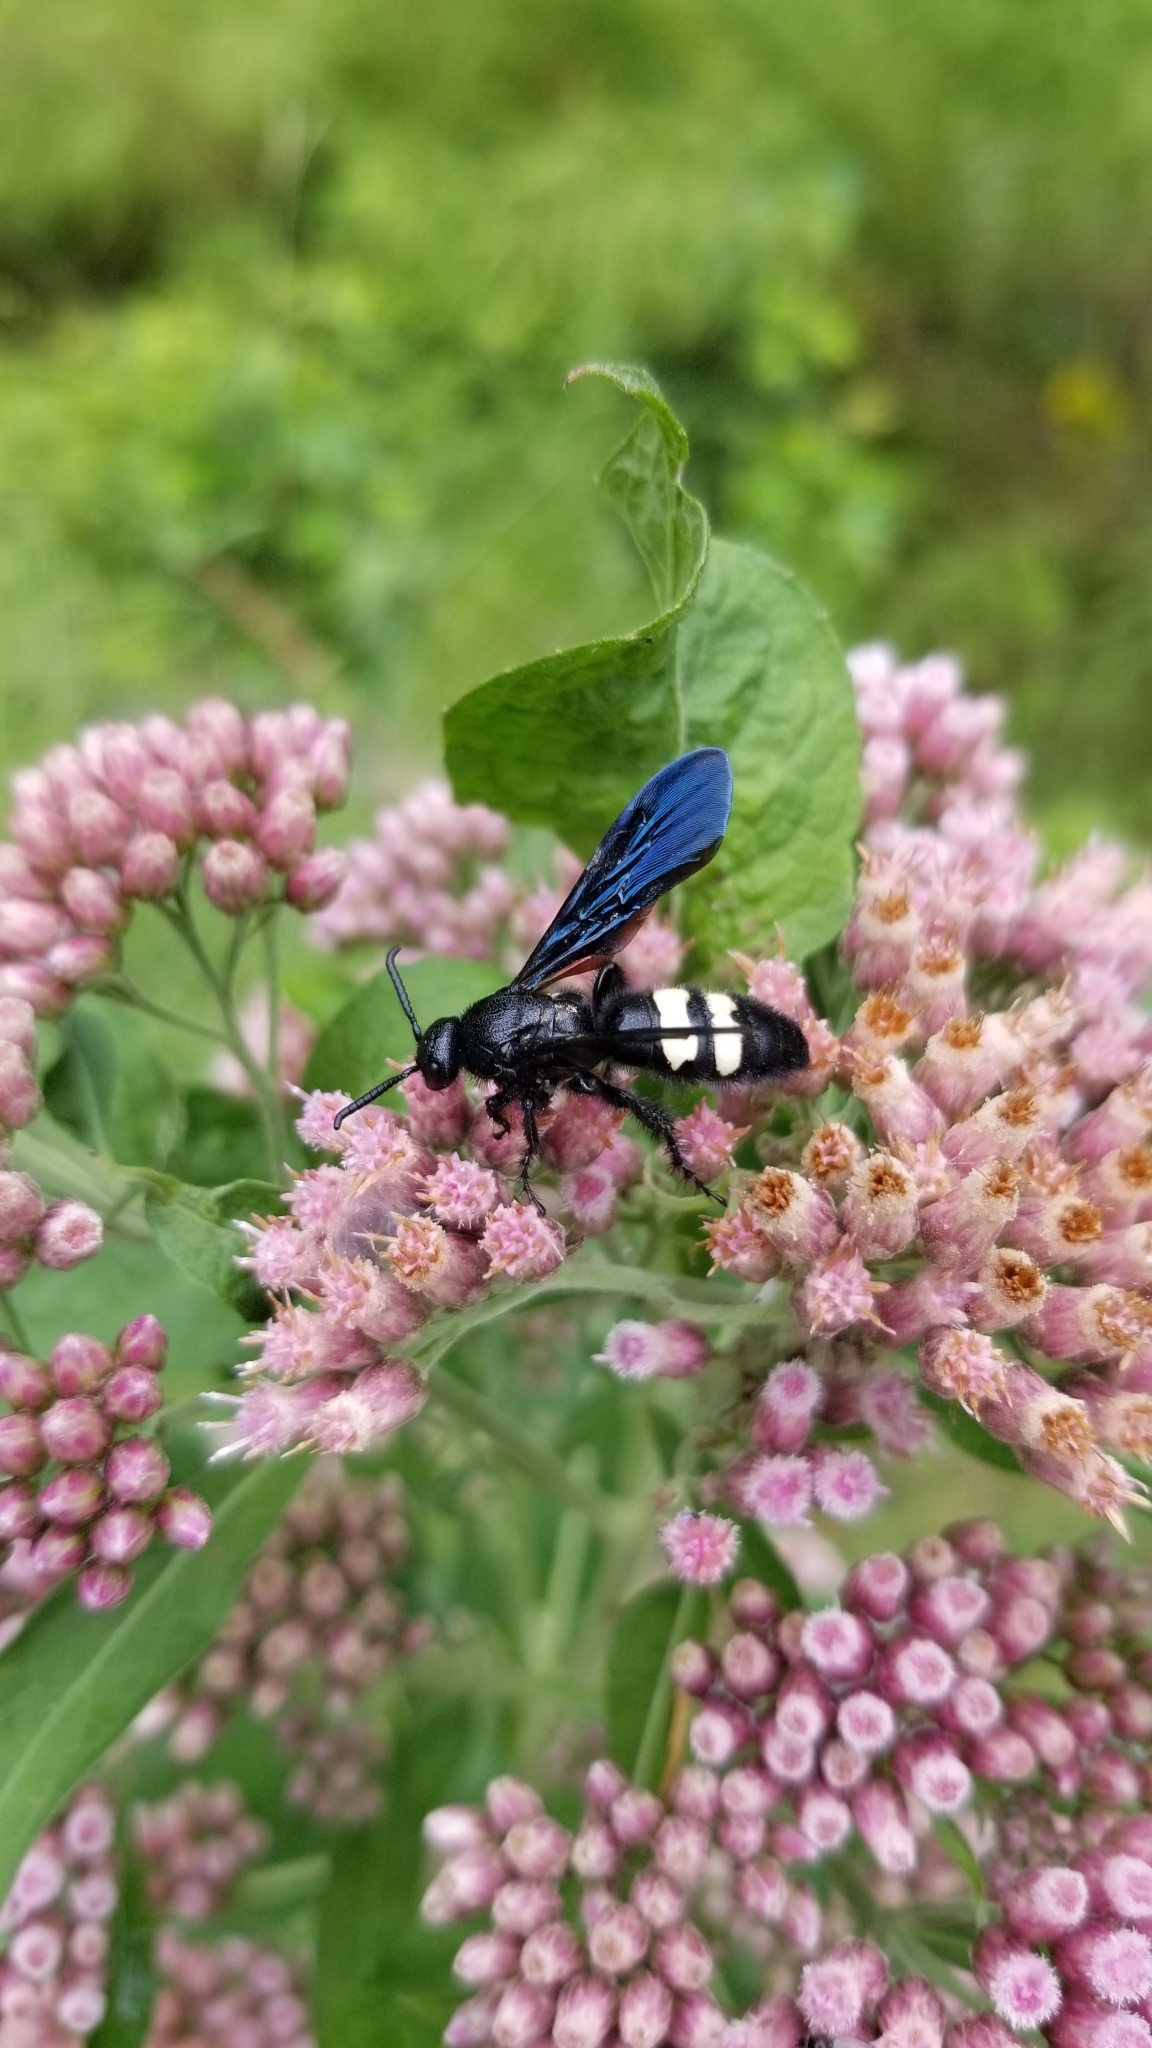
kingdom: Animalia
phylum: Arthropoda
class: Insecta
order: Hymenoptera
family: Scoliidae
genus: Scolia
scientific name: Scolia bicincta
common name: Double-banded scoliid wasp
